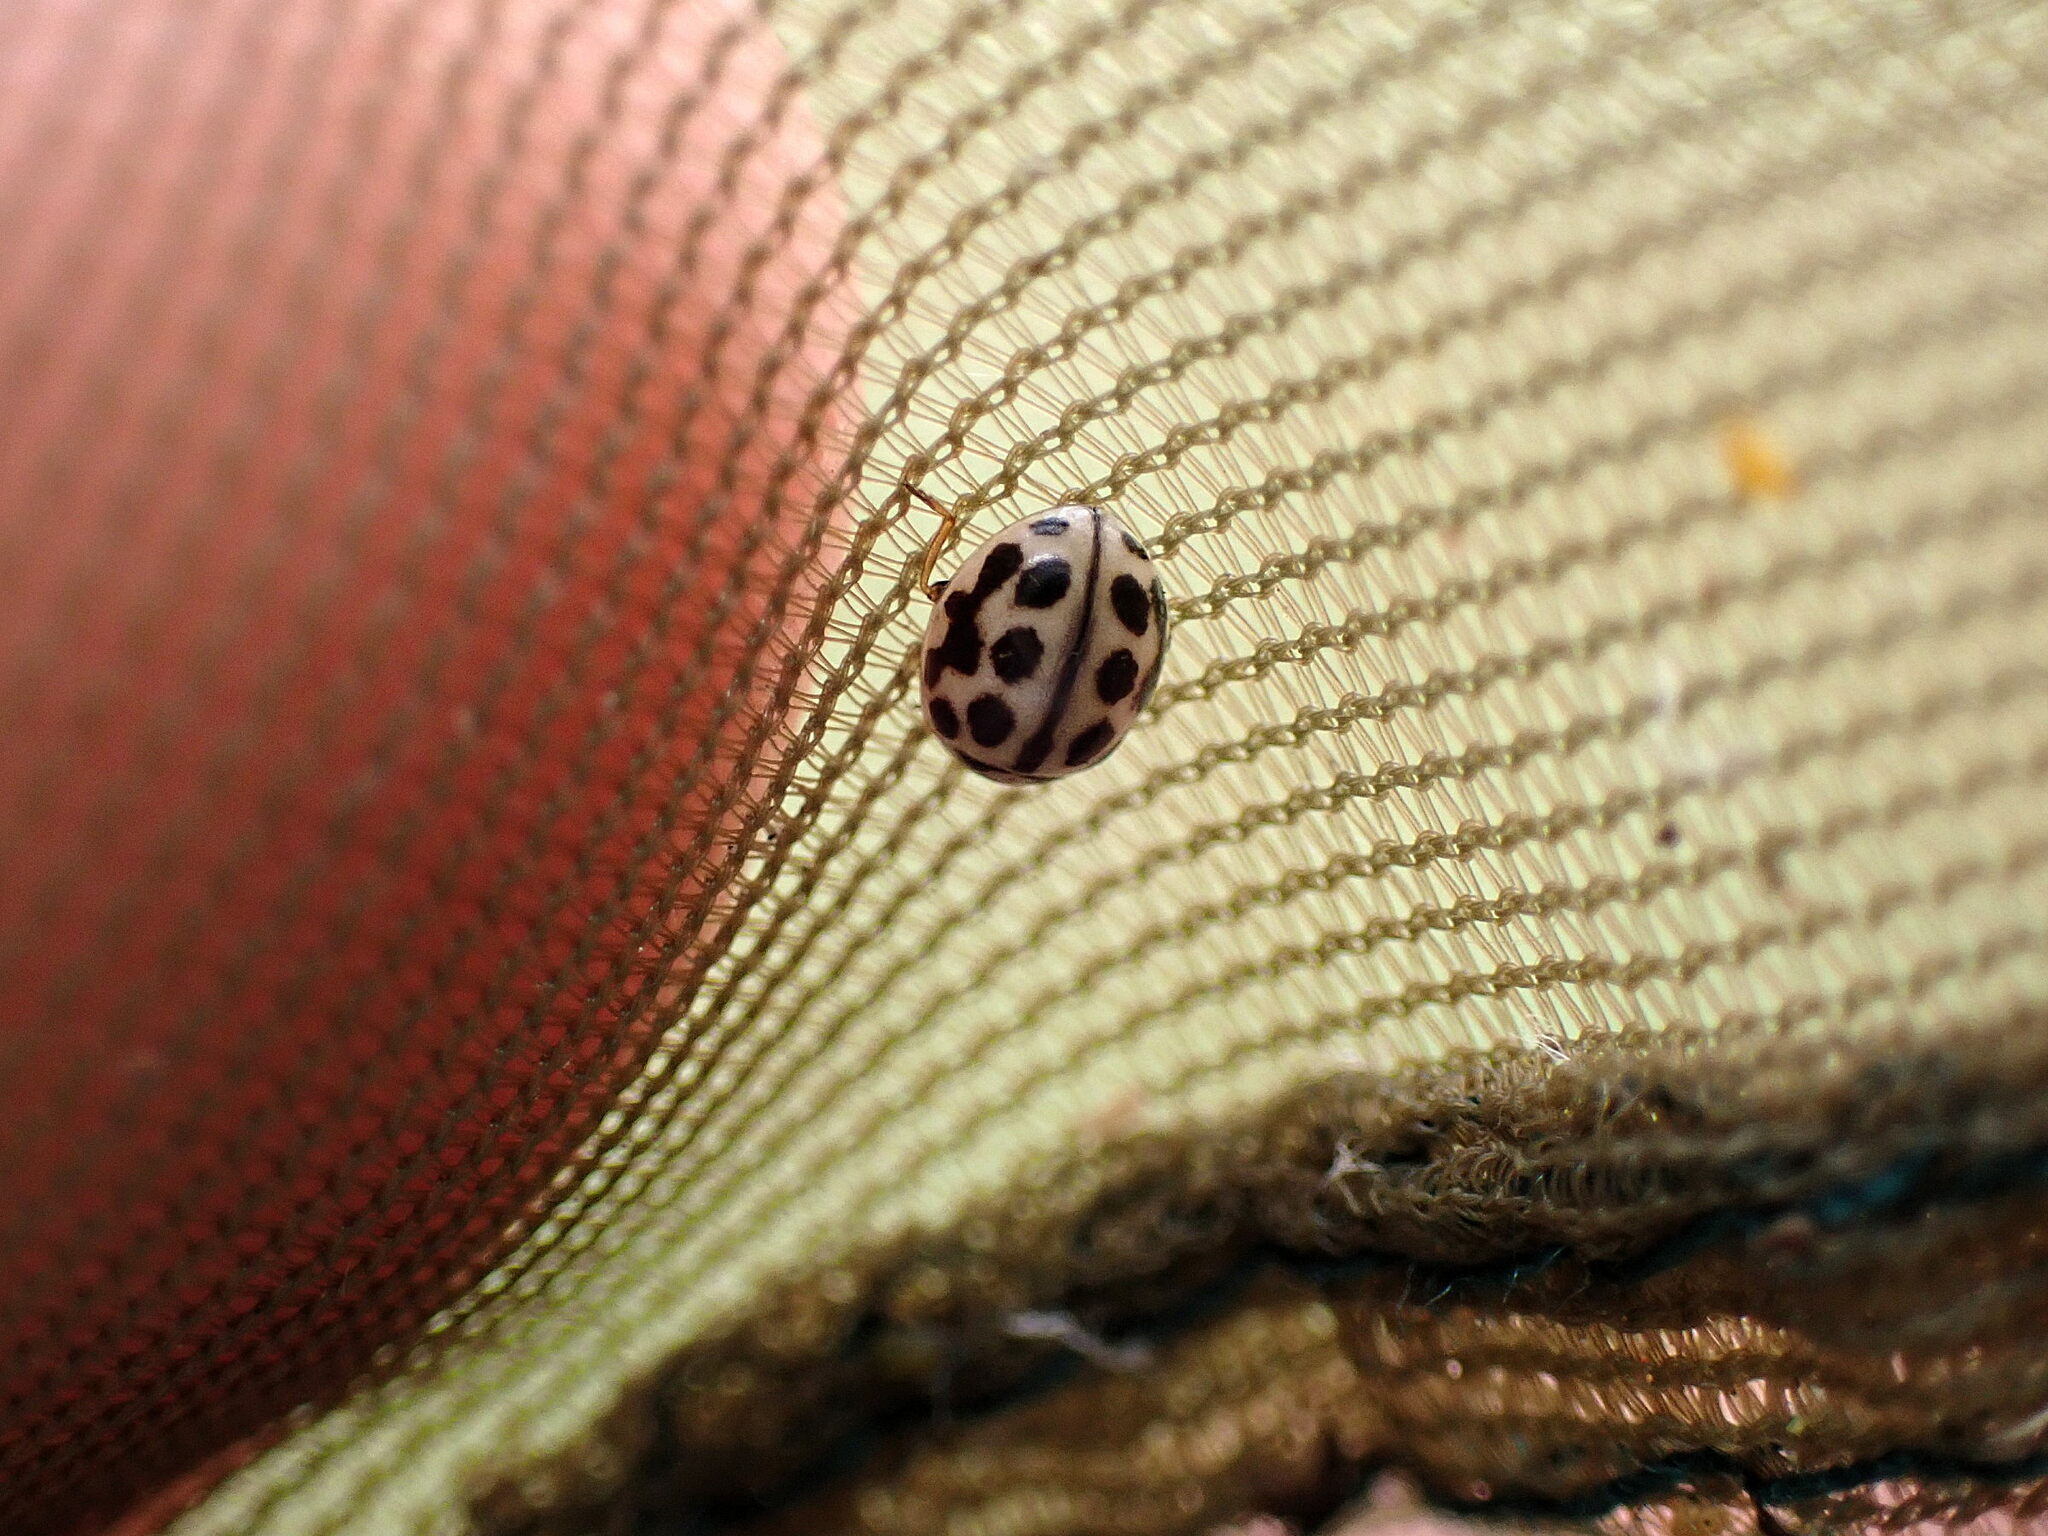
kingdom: Animalia
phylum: Arthropoda
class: Insecta
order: Coleoptera
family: Coccinellidae
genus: Tytthaspis
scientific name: Tytthaspis sedecimpunctata
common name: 16-spot ladybird
